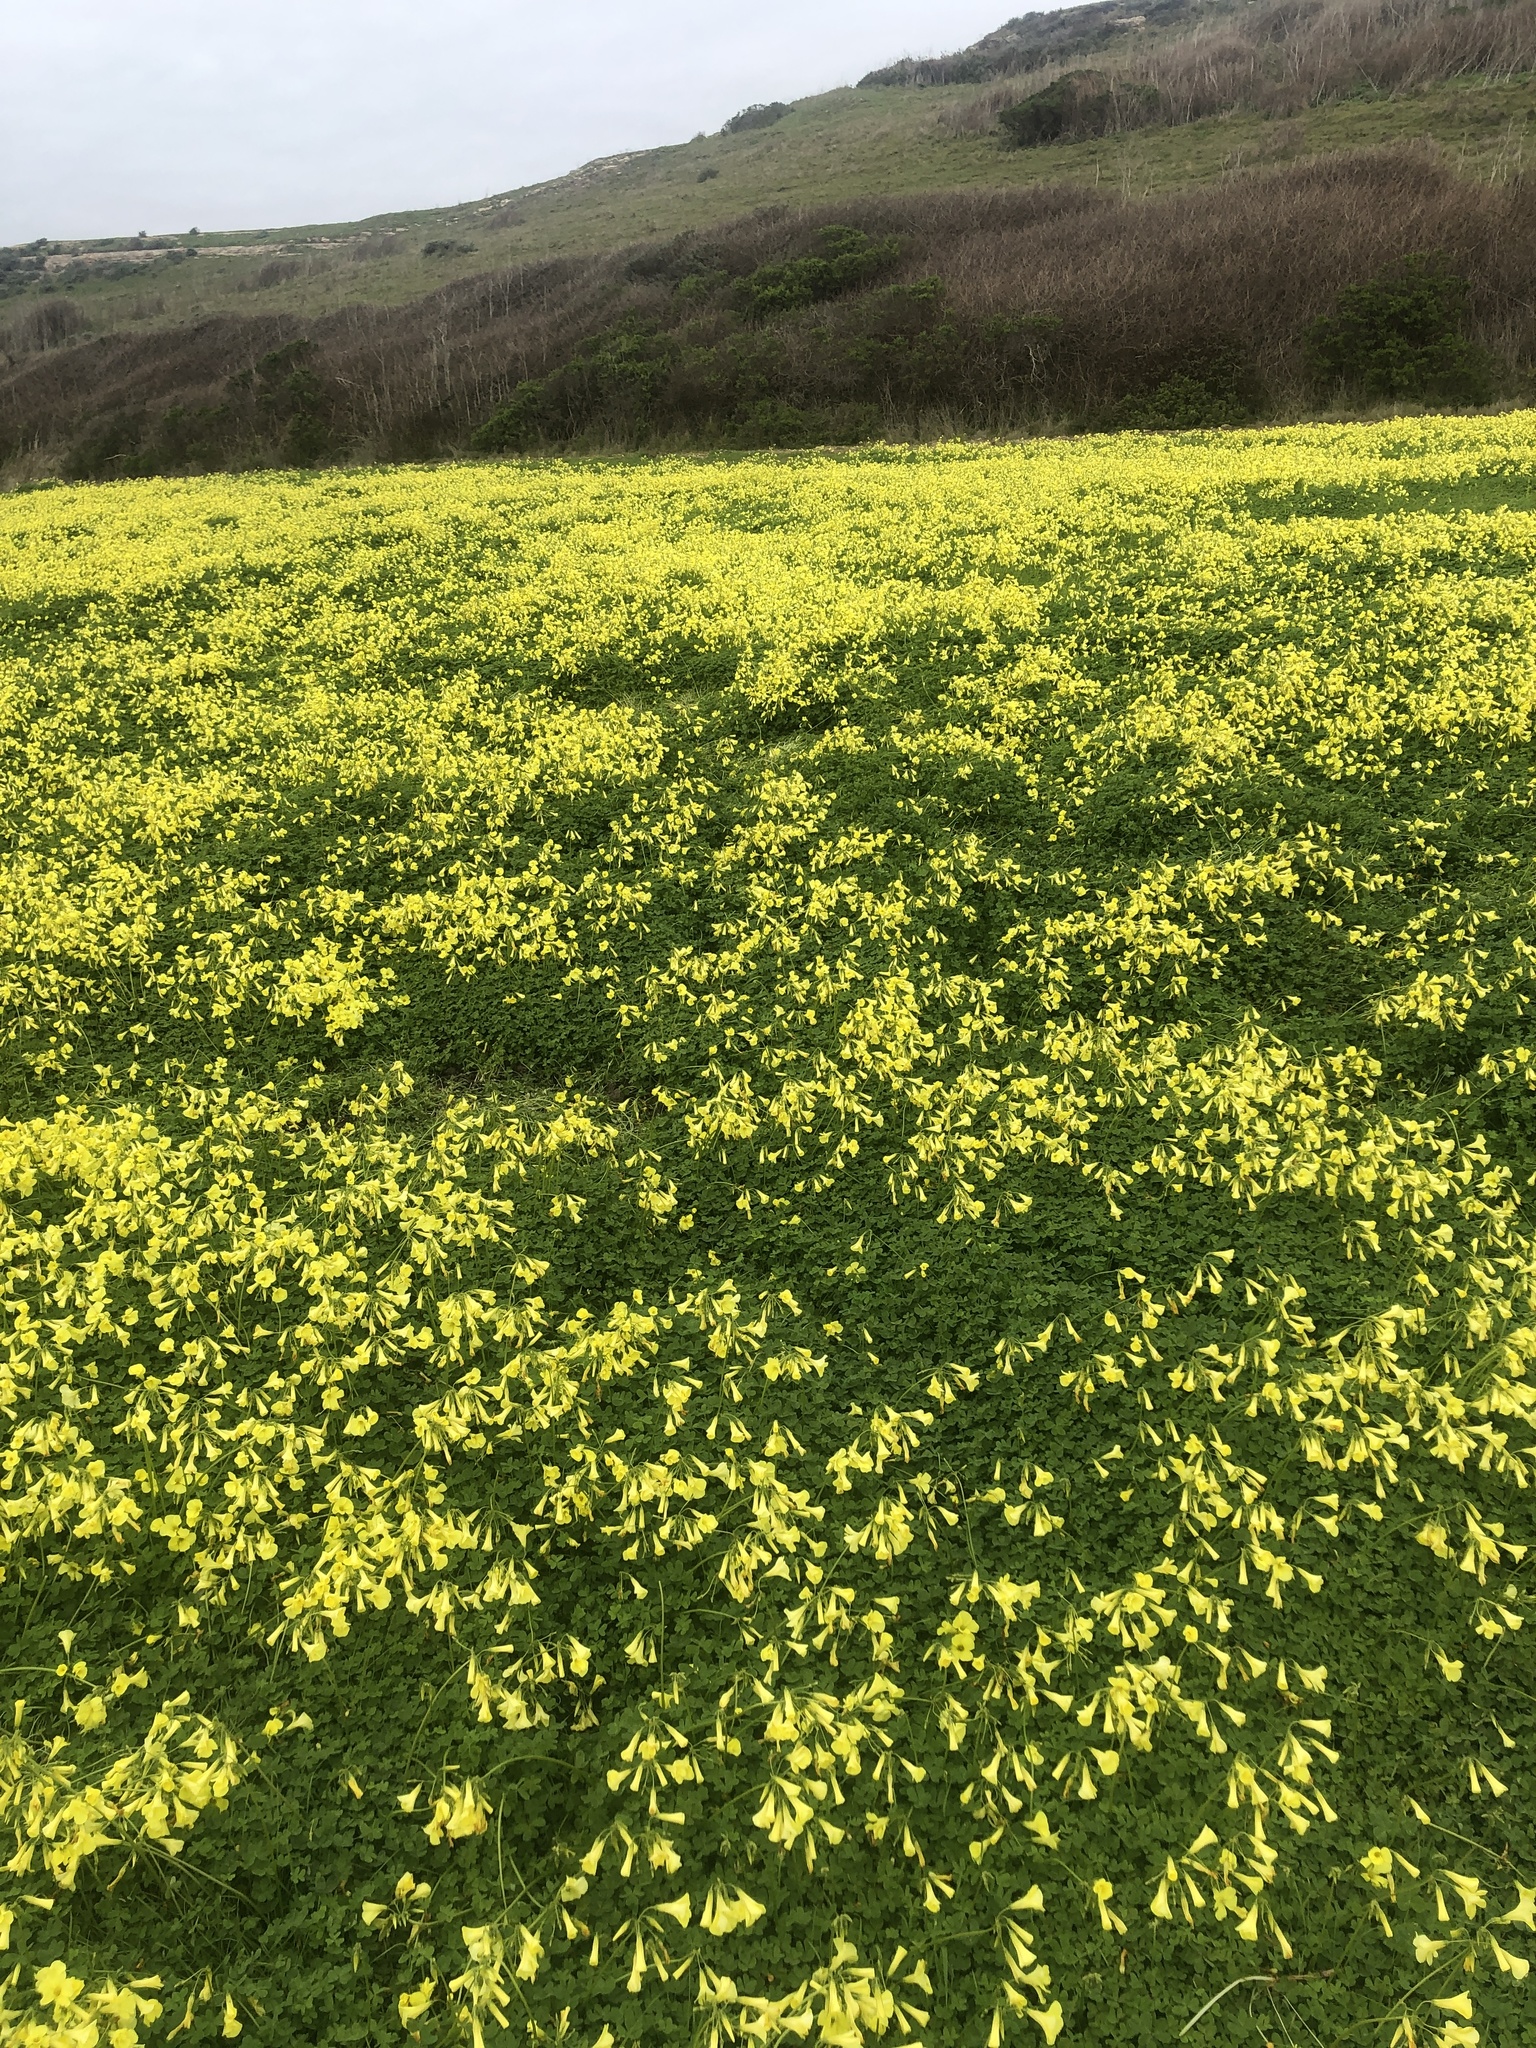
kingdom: Plantae
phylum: Tracheophyta
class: Magnoliopsida
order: Oxalidales
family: Oxalidaceae
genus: Oxalis
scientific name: Oxalis pes-caprae
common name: Bermuda-buttercup
